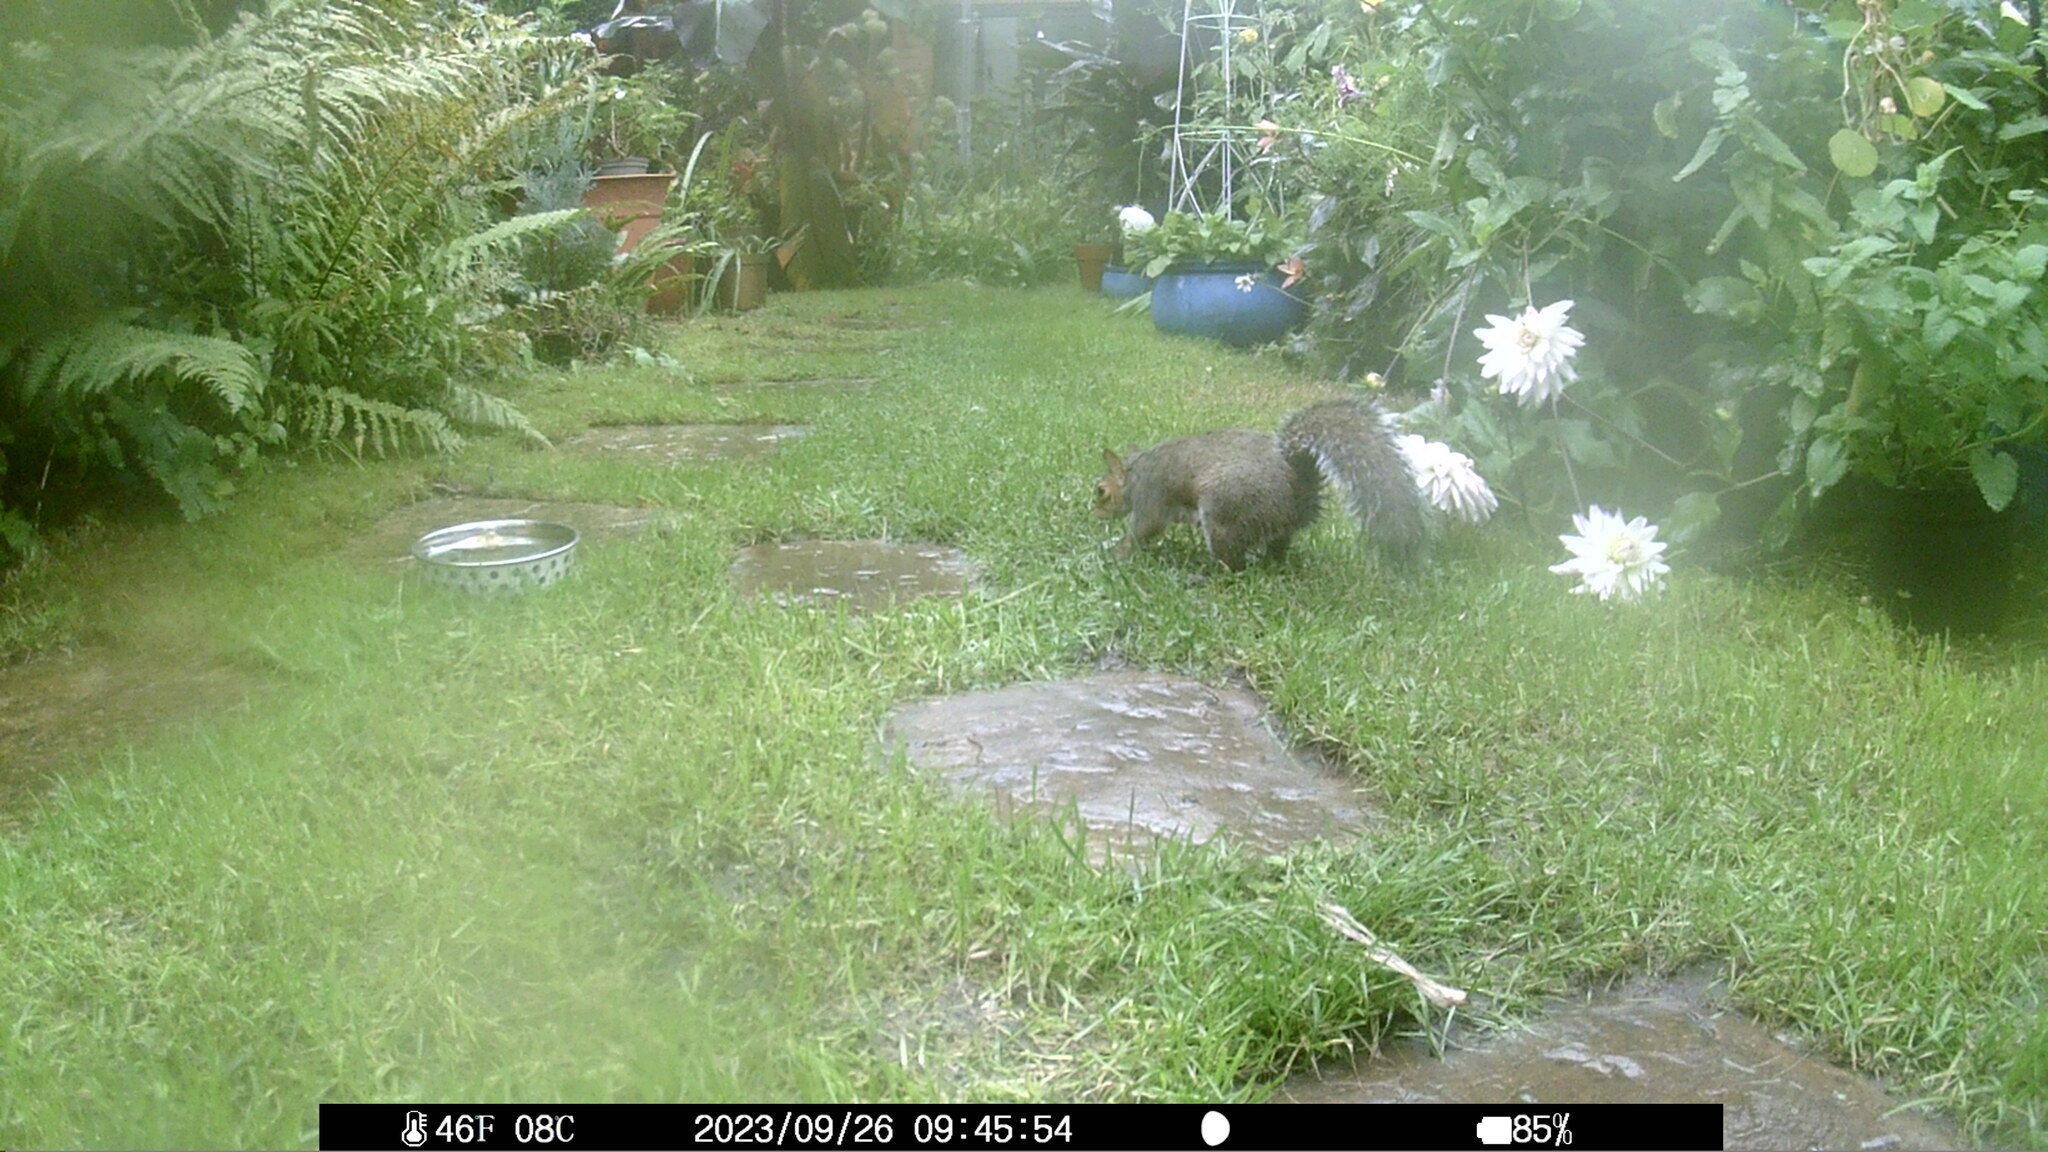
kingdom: Animalia
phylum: Chordata
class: Mammalia
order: Rodentia
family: Sciuridae
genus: Sciurus
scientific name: Sciurus carolinensis
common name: Eastern gray squirrel
